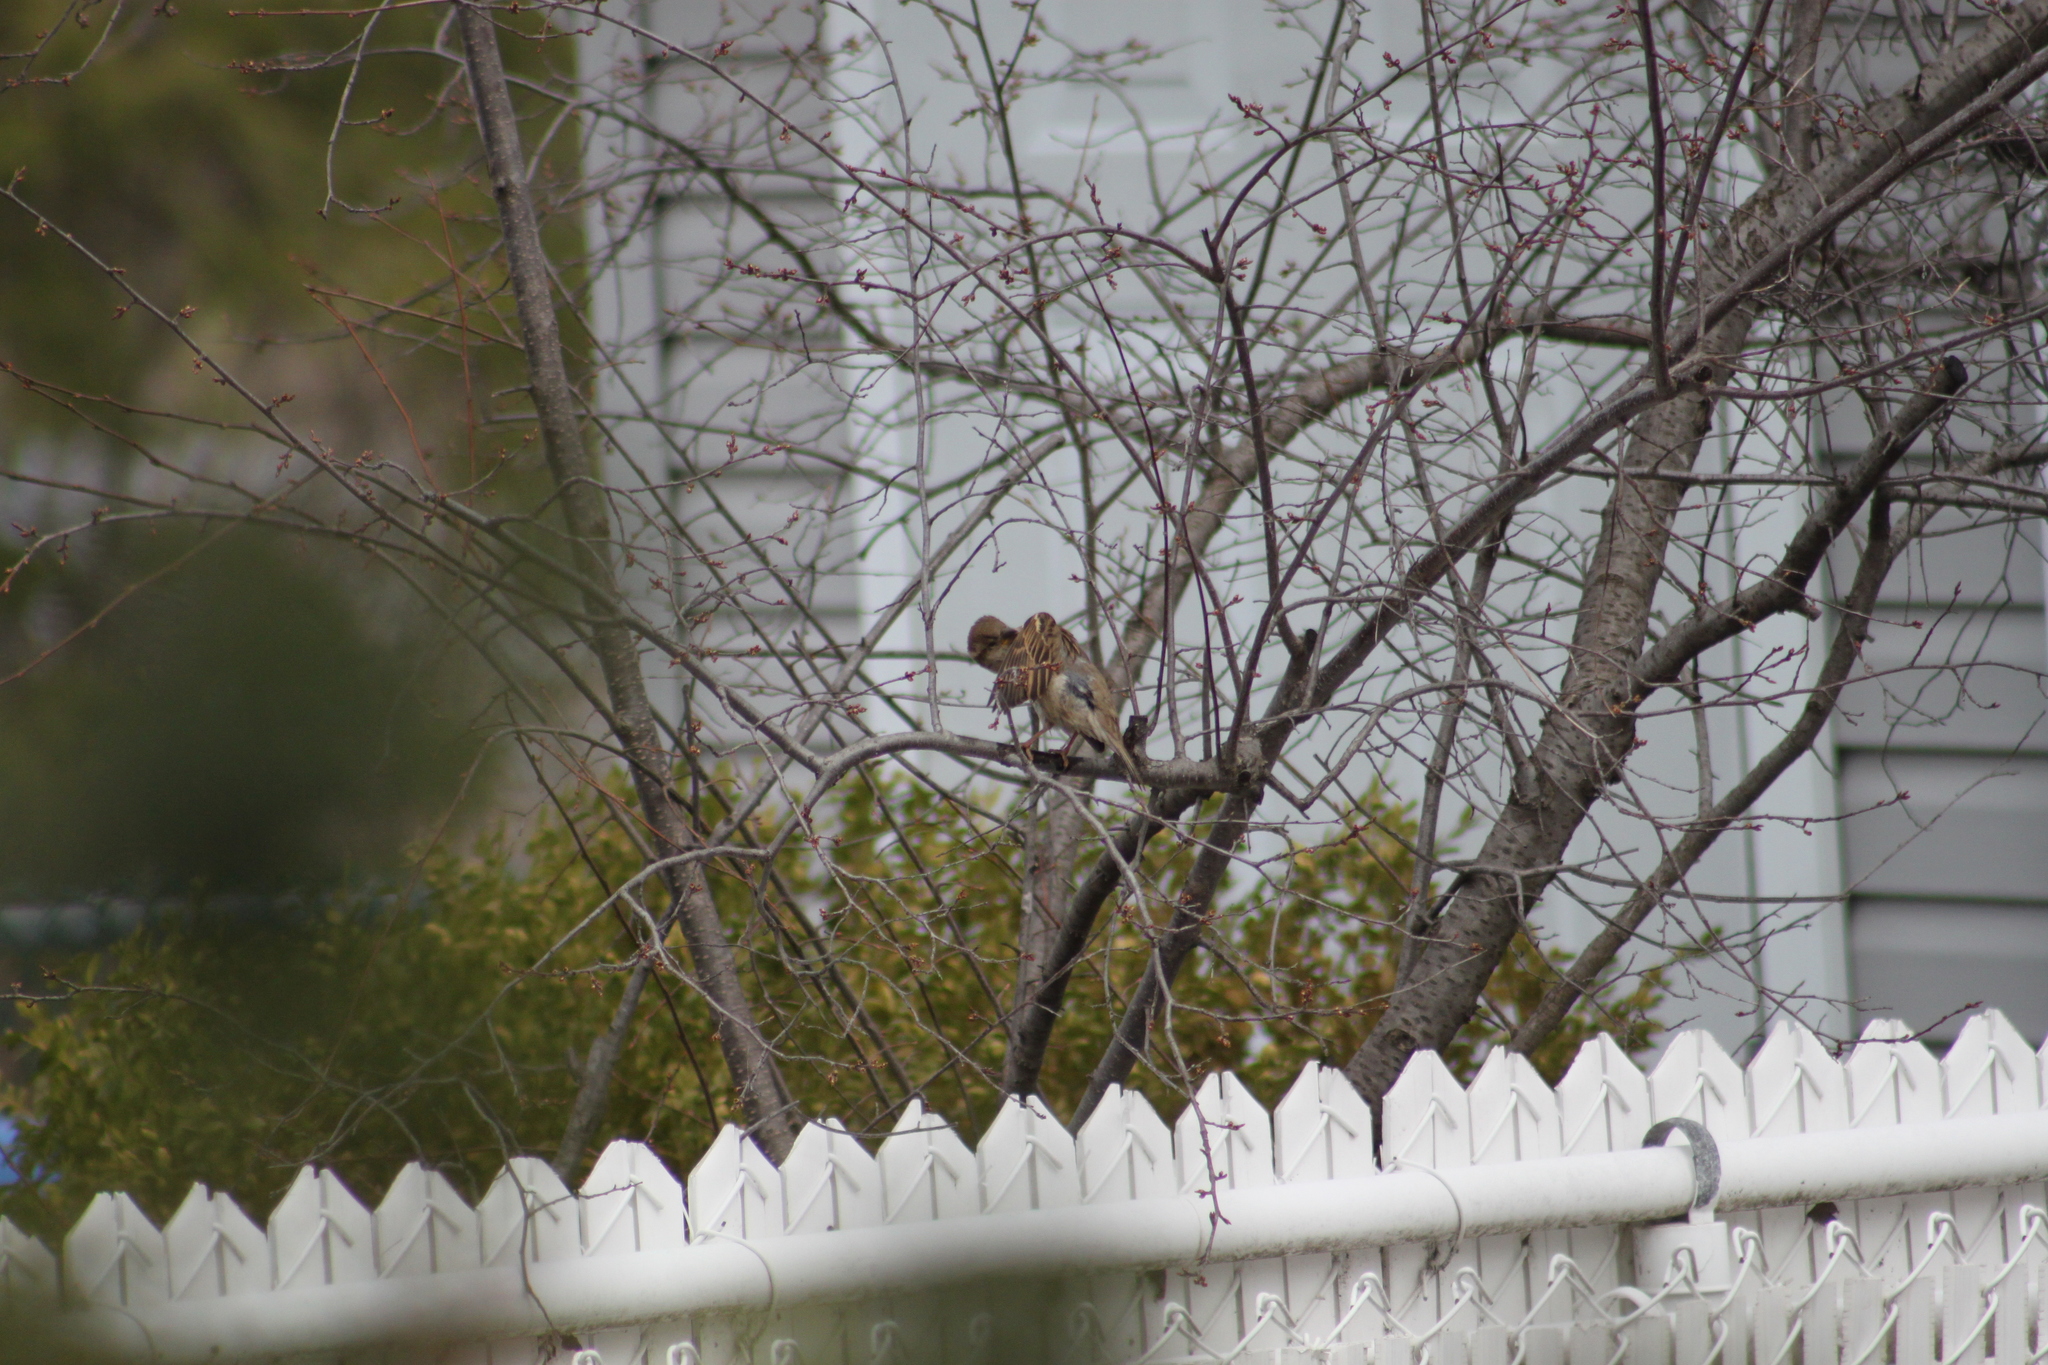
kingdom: Animalia
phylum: Chordata
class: Aves
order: Passeriformes
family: Passeridae
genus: Passer
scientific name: Passer domesticus
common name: House sparrow
